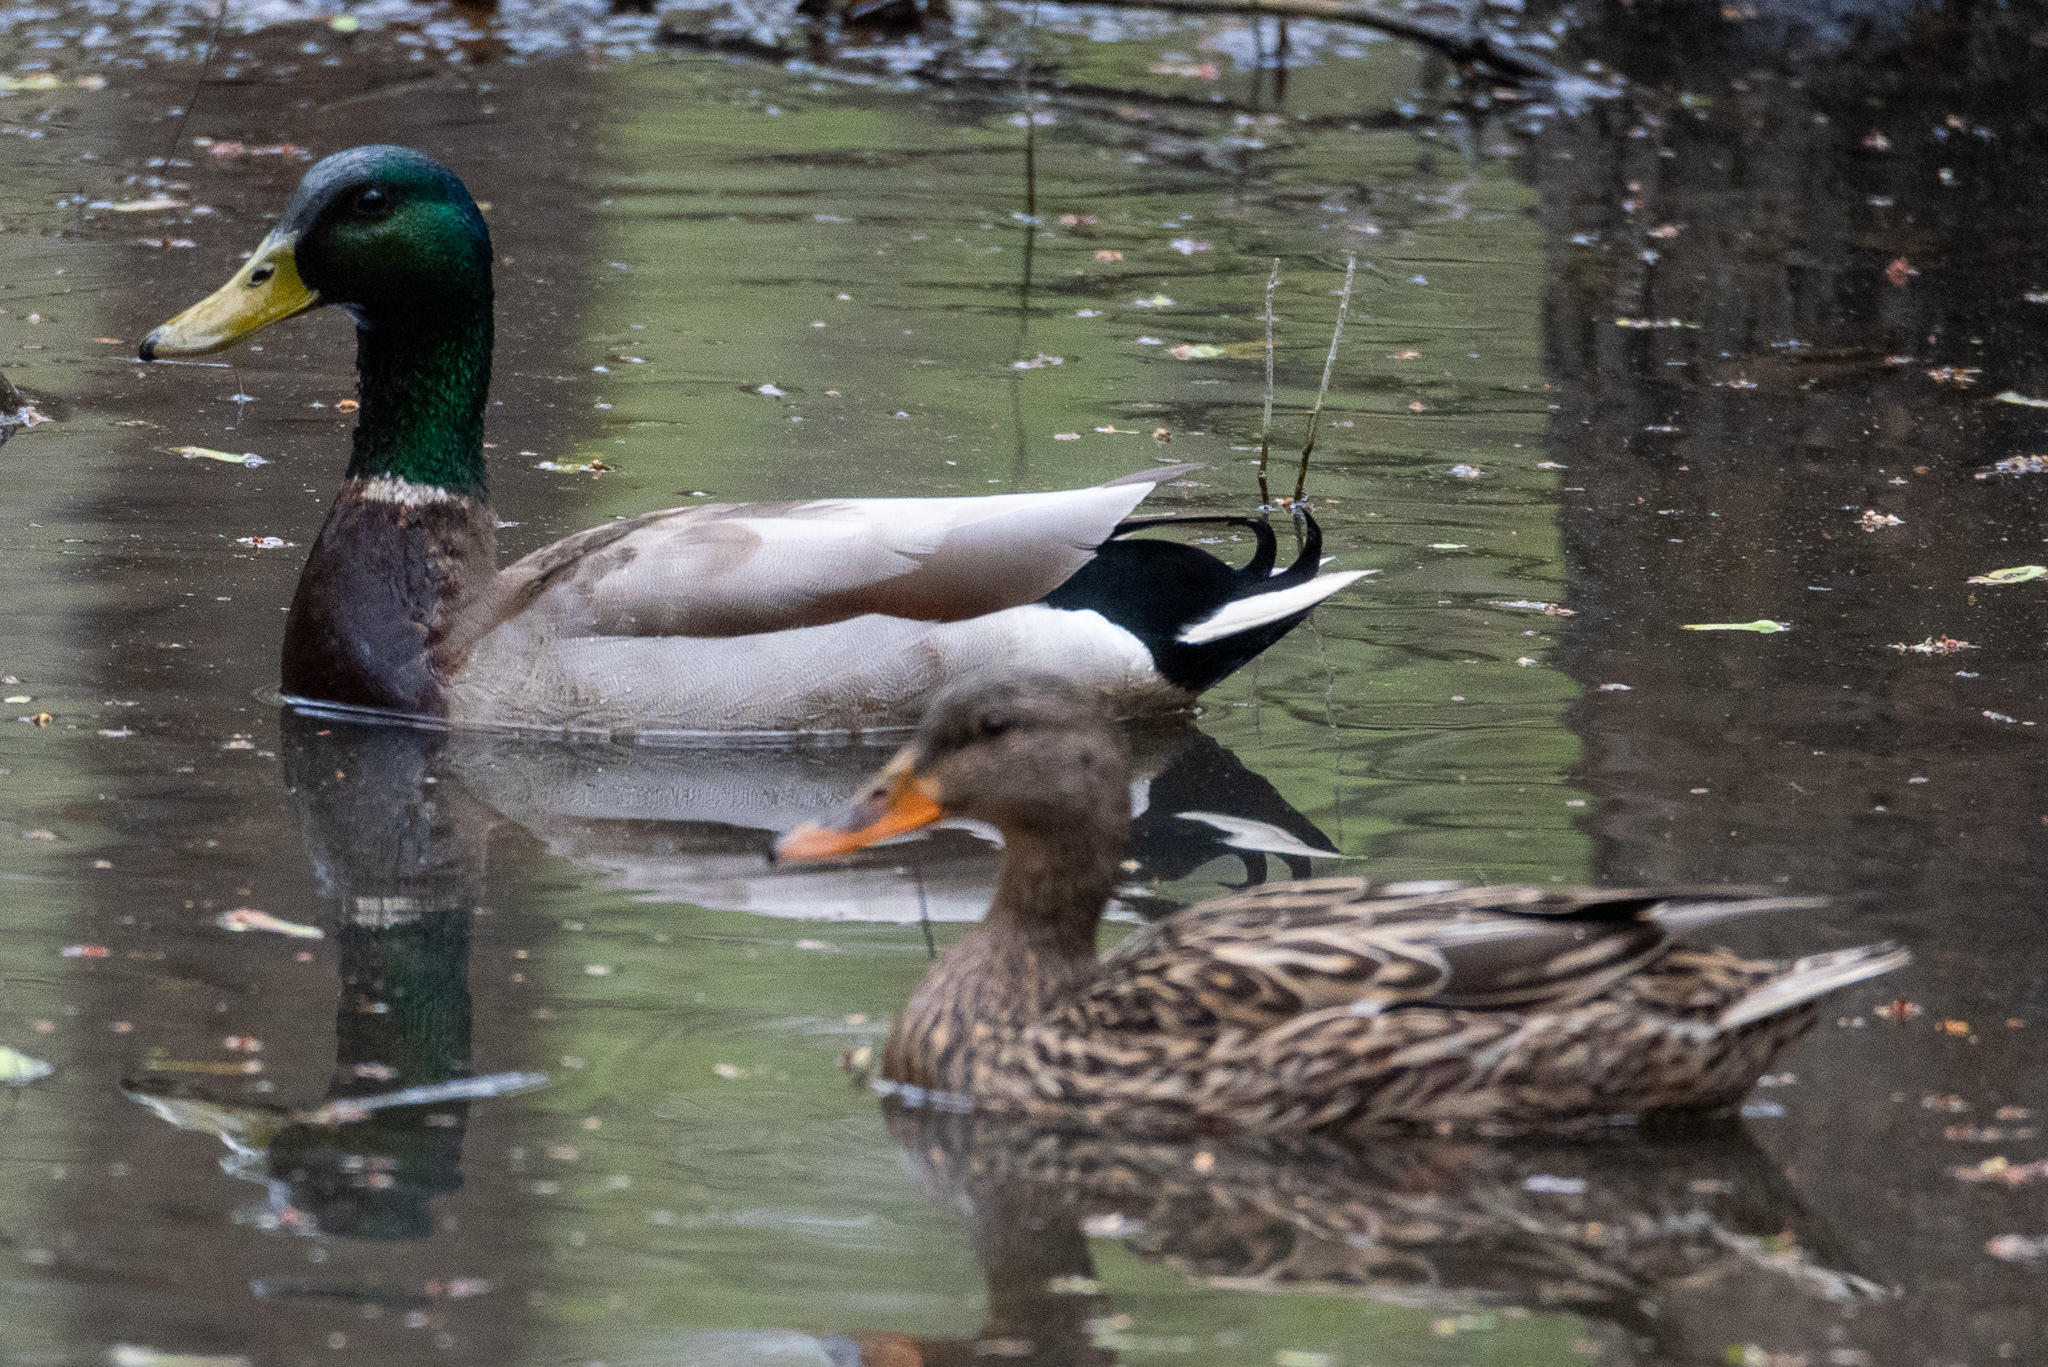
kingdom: Animalia
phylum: Chordata
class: Aves
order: Anseriformes
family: Anatidae
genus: Anas
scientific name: Anas platyrhynchos
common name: Mallard
